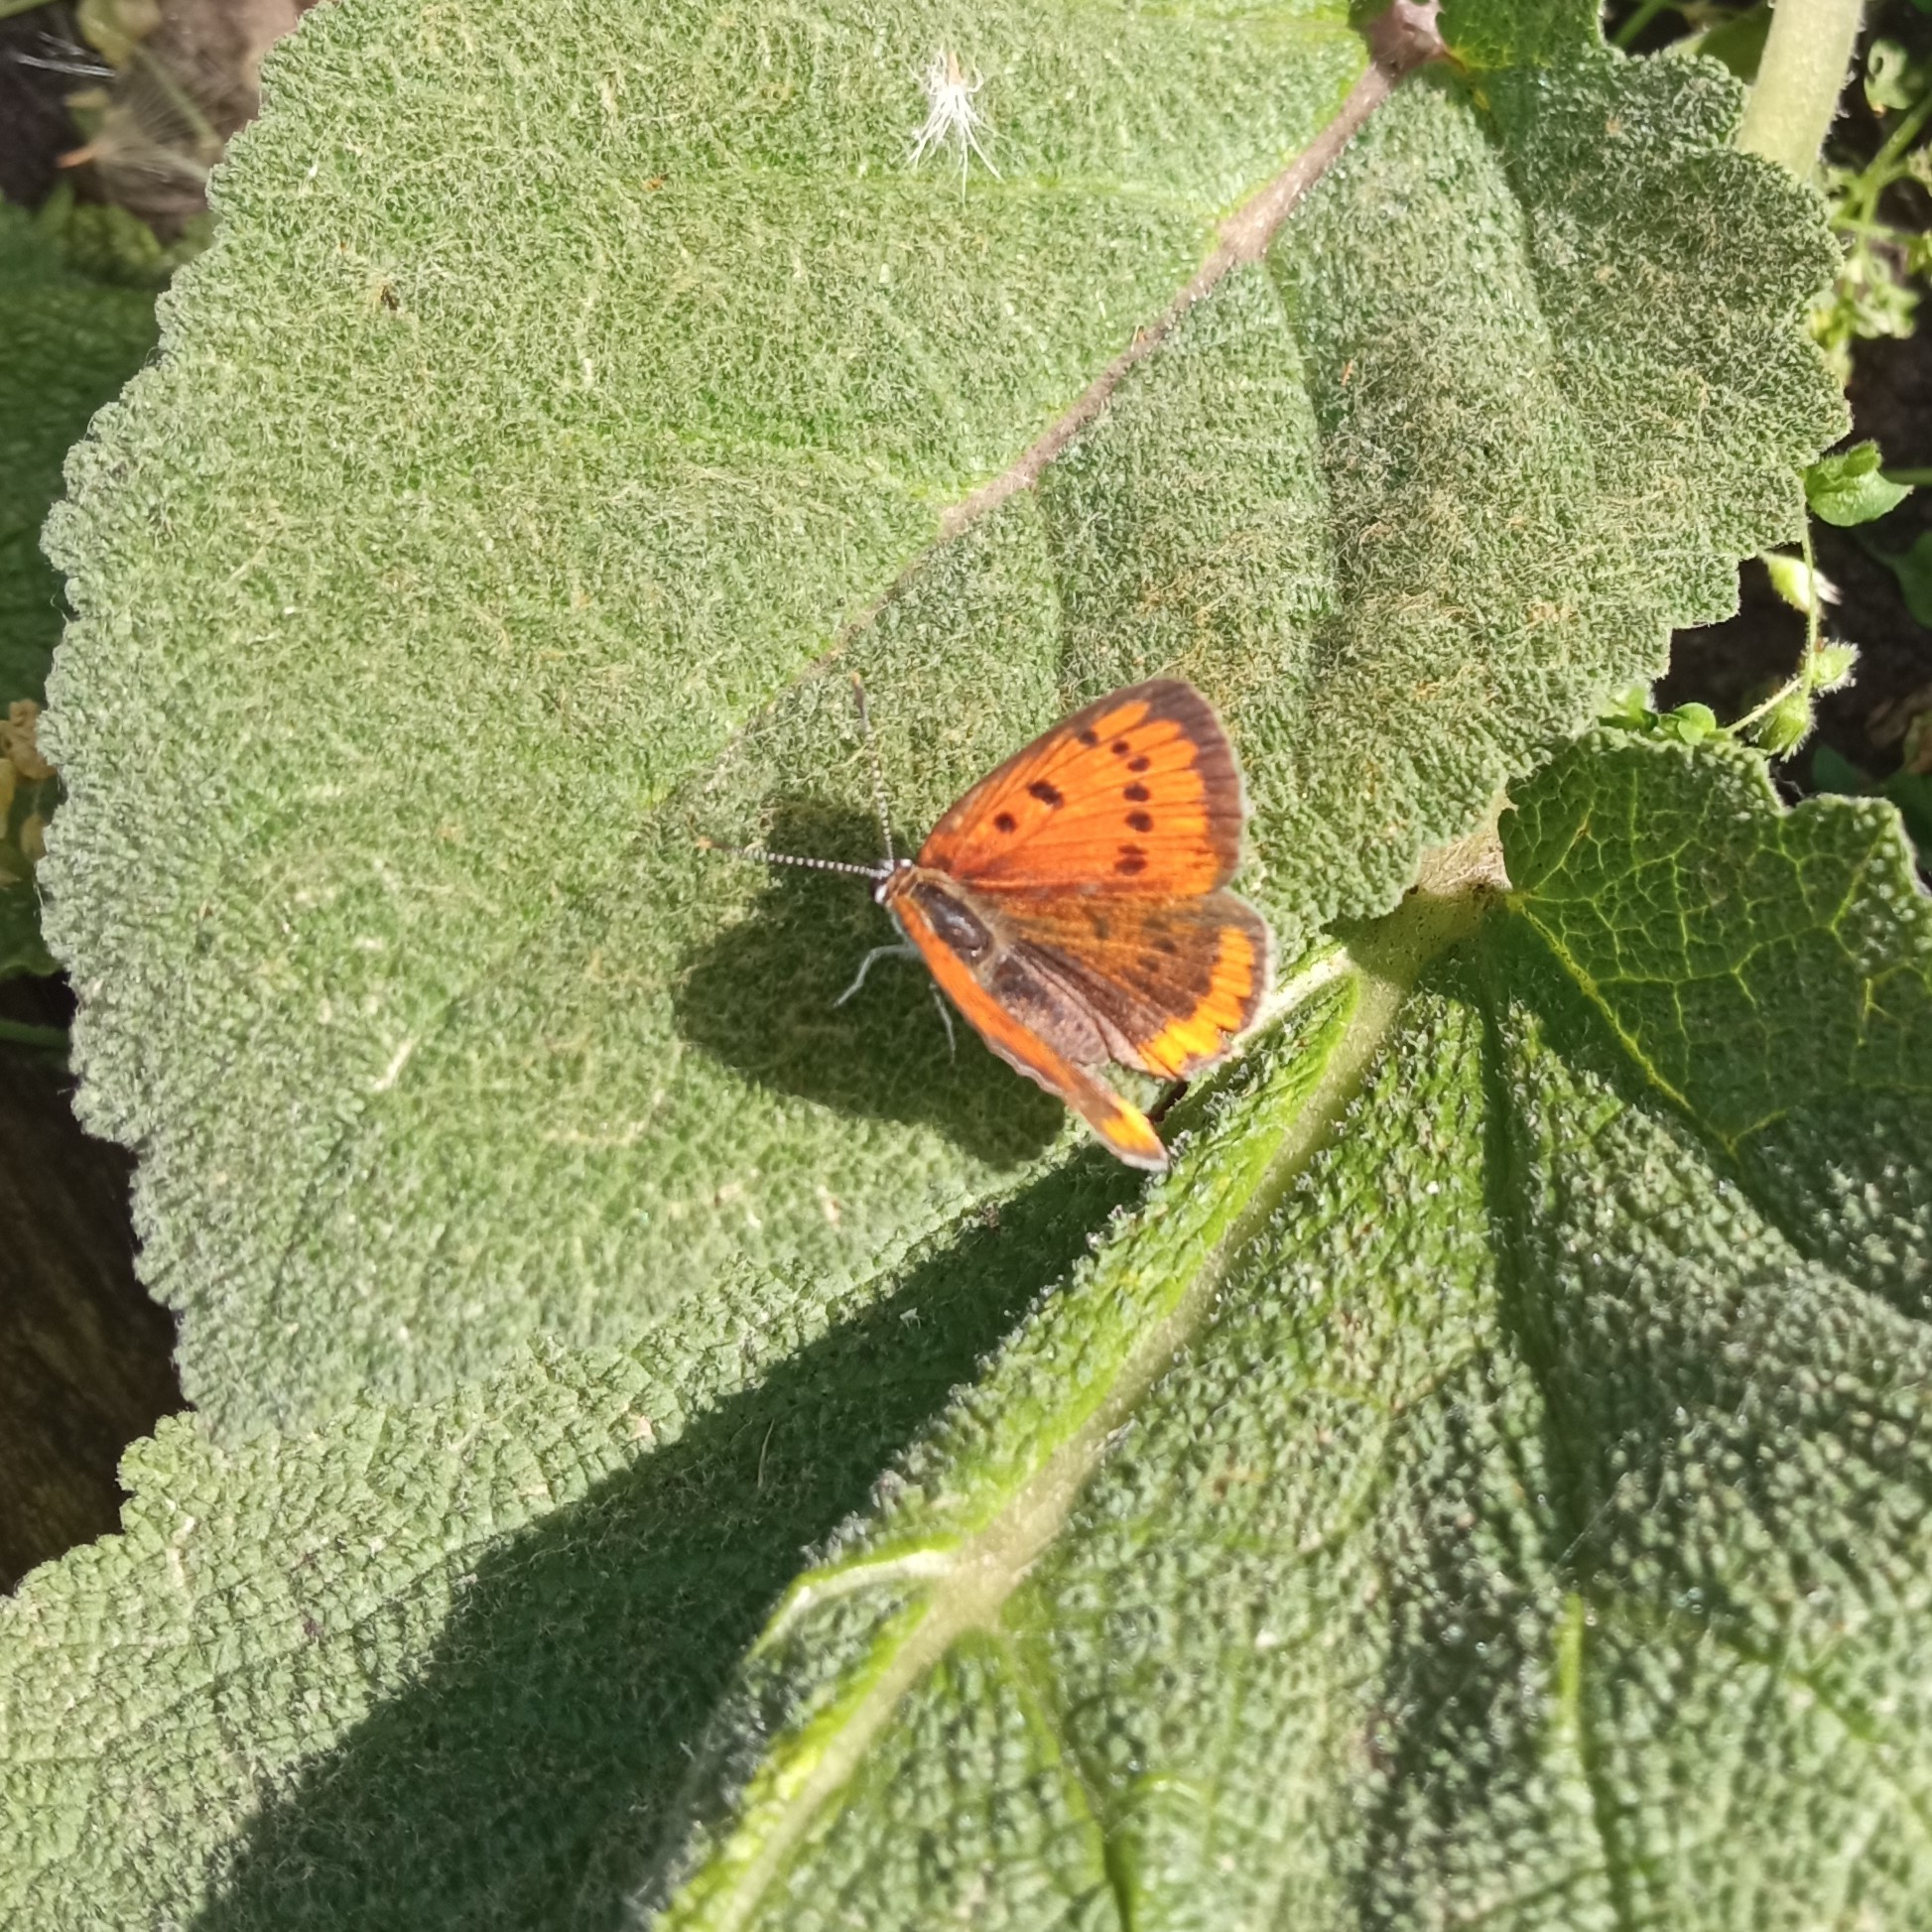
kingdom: Animalia
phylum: Arthropoda
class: Insecta
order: Lepidoptera
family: Lycaenidae
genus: Lycaena
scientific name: Lycaena dispar
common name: Large copper
